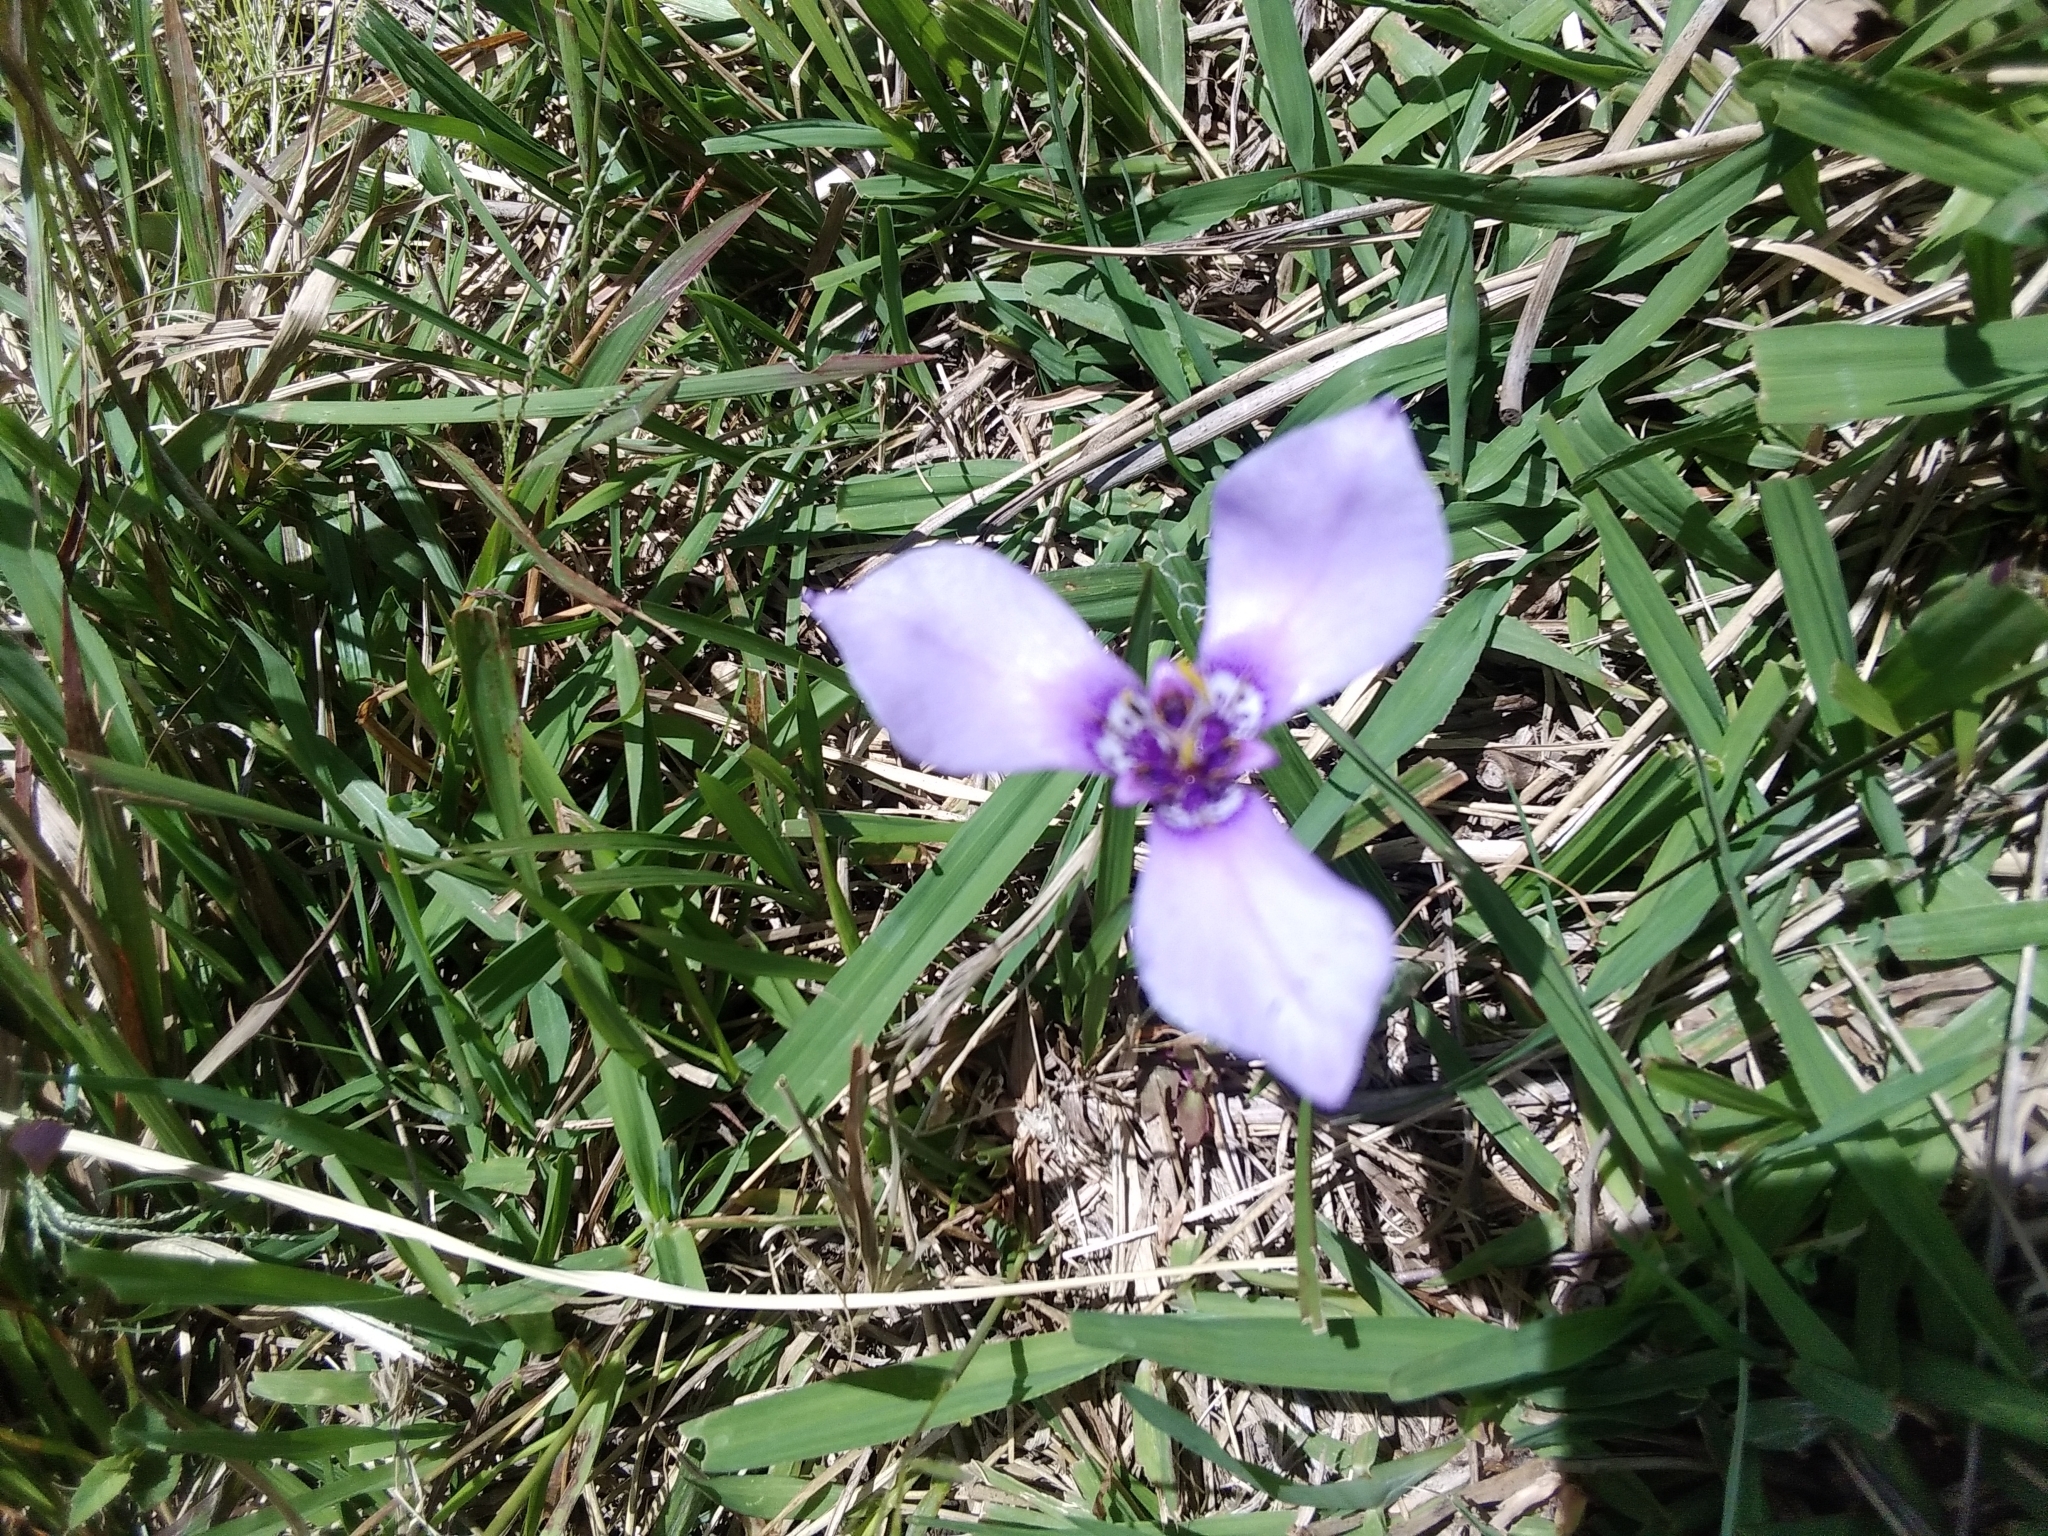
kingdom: Plantae
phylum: Tracheophyta
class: Liliopsida
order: Asparagales
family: Iridaceae
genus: Herbertia
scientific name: Herbertia lahue
